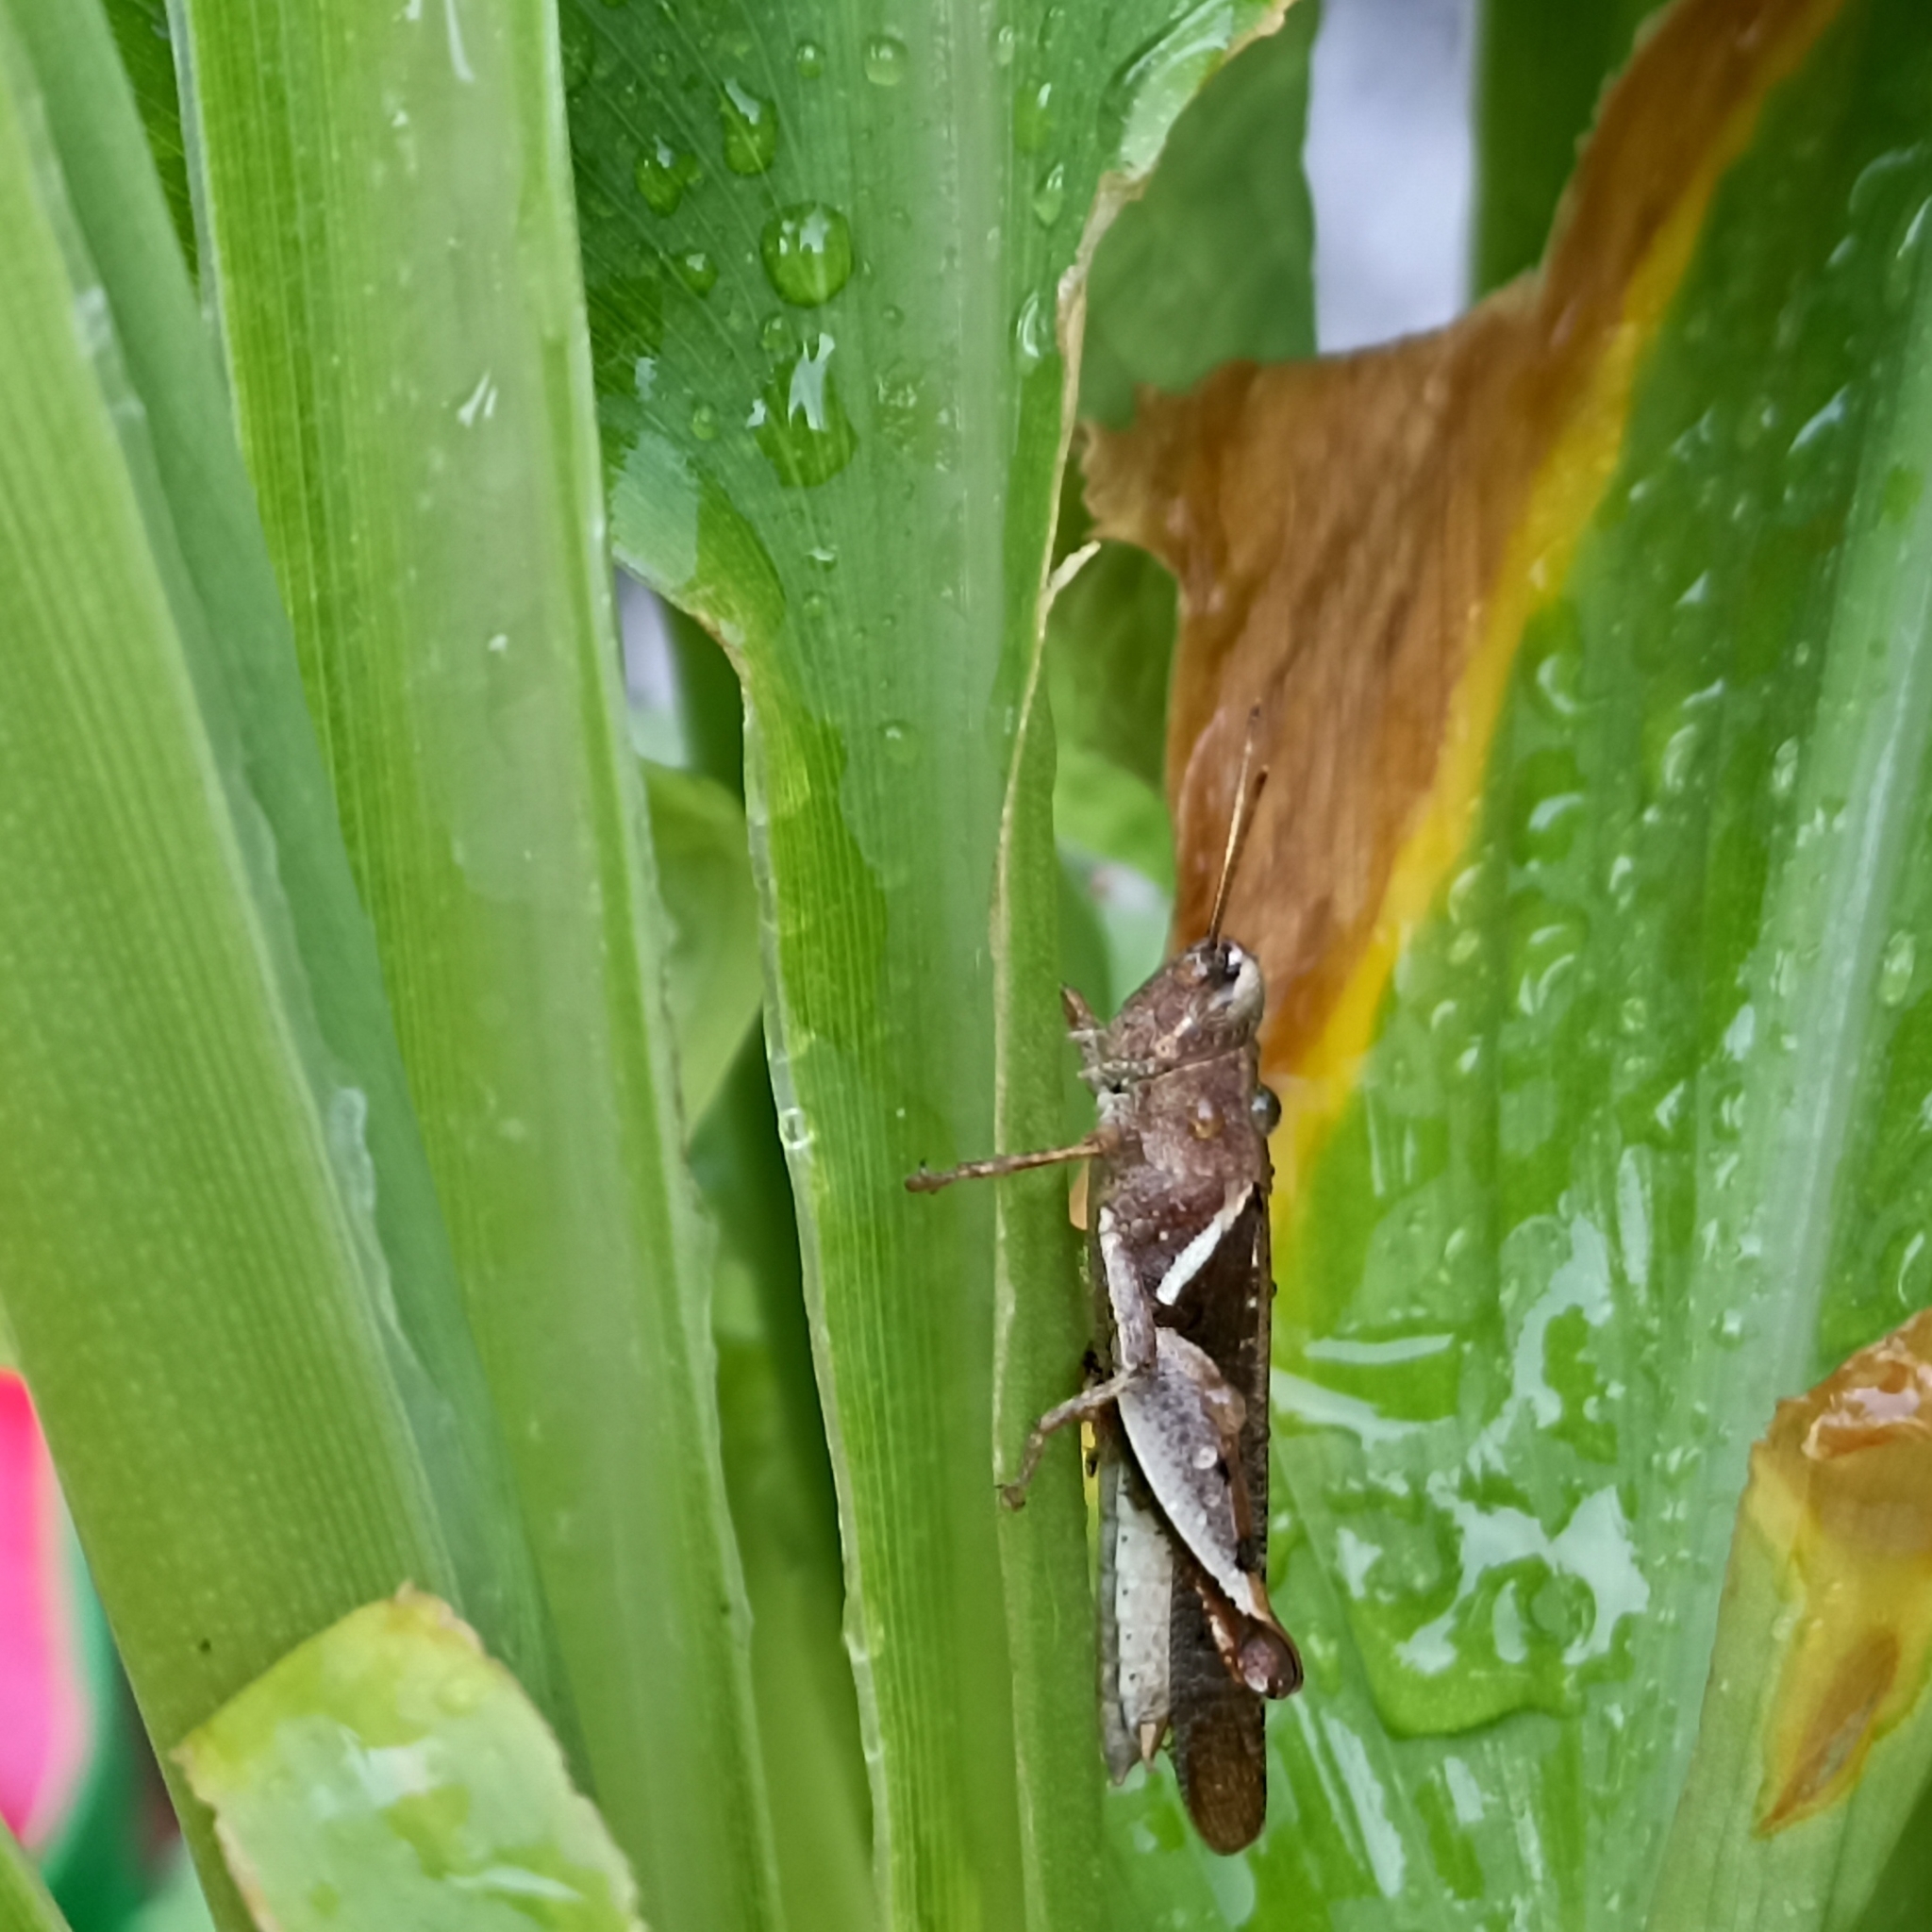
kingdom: Animalia
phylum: Arthropoda
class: Insecta
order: Orthoptera
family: Acrididae
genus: Diabolocatantops
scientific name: Diabolocatantops innotabilis
